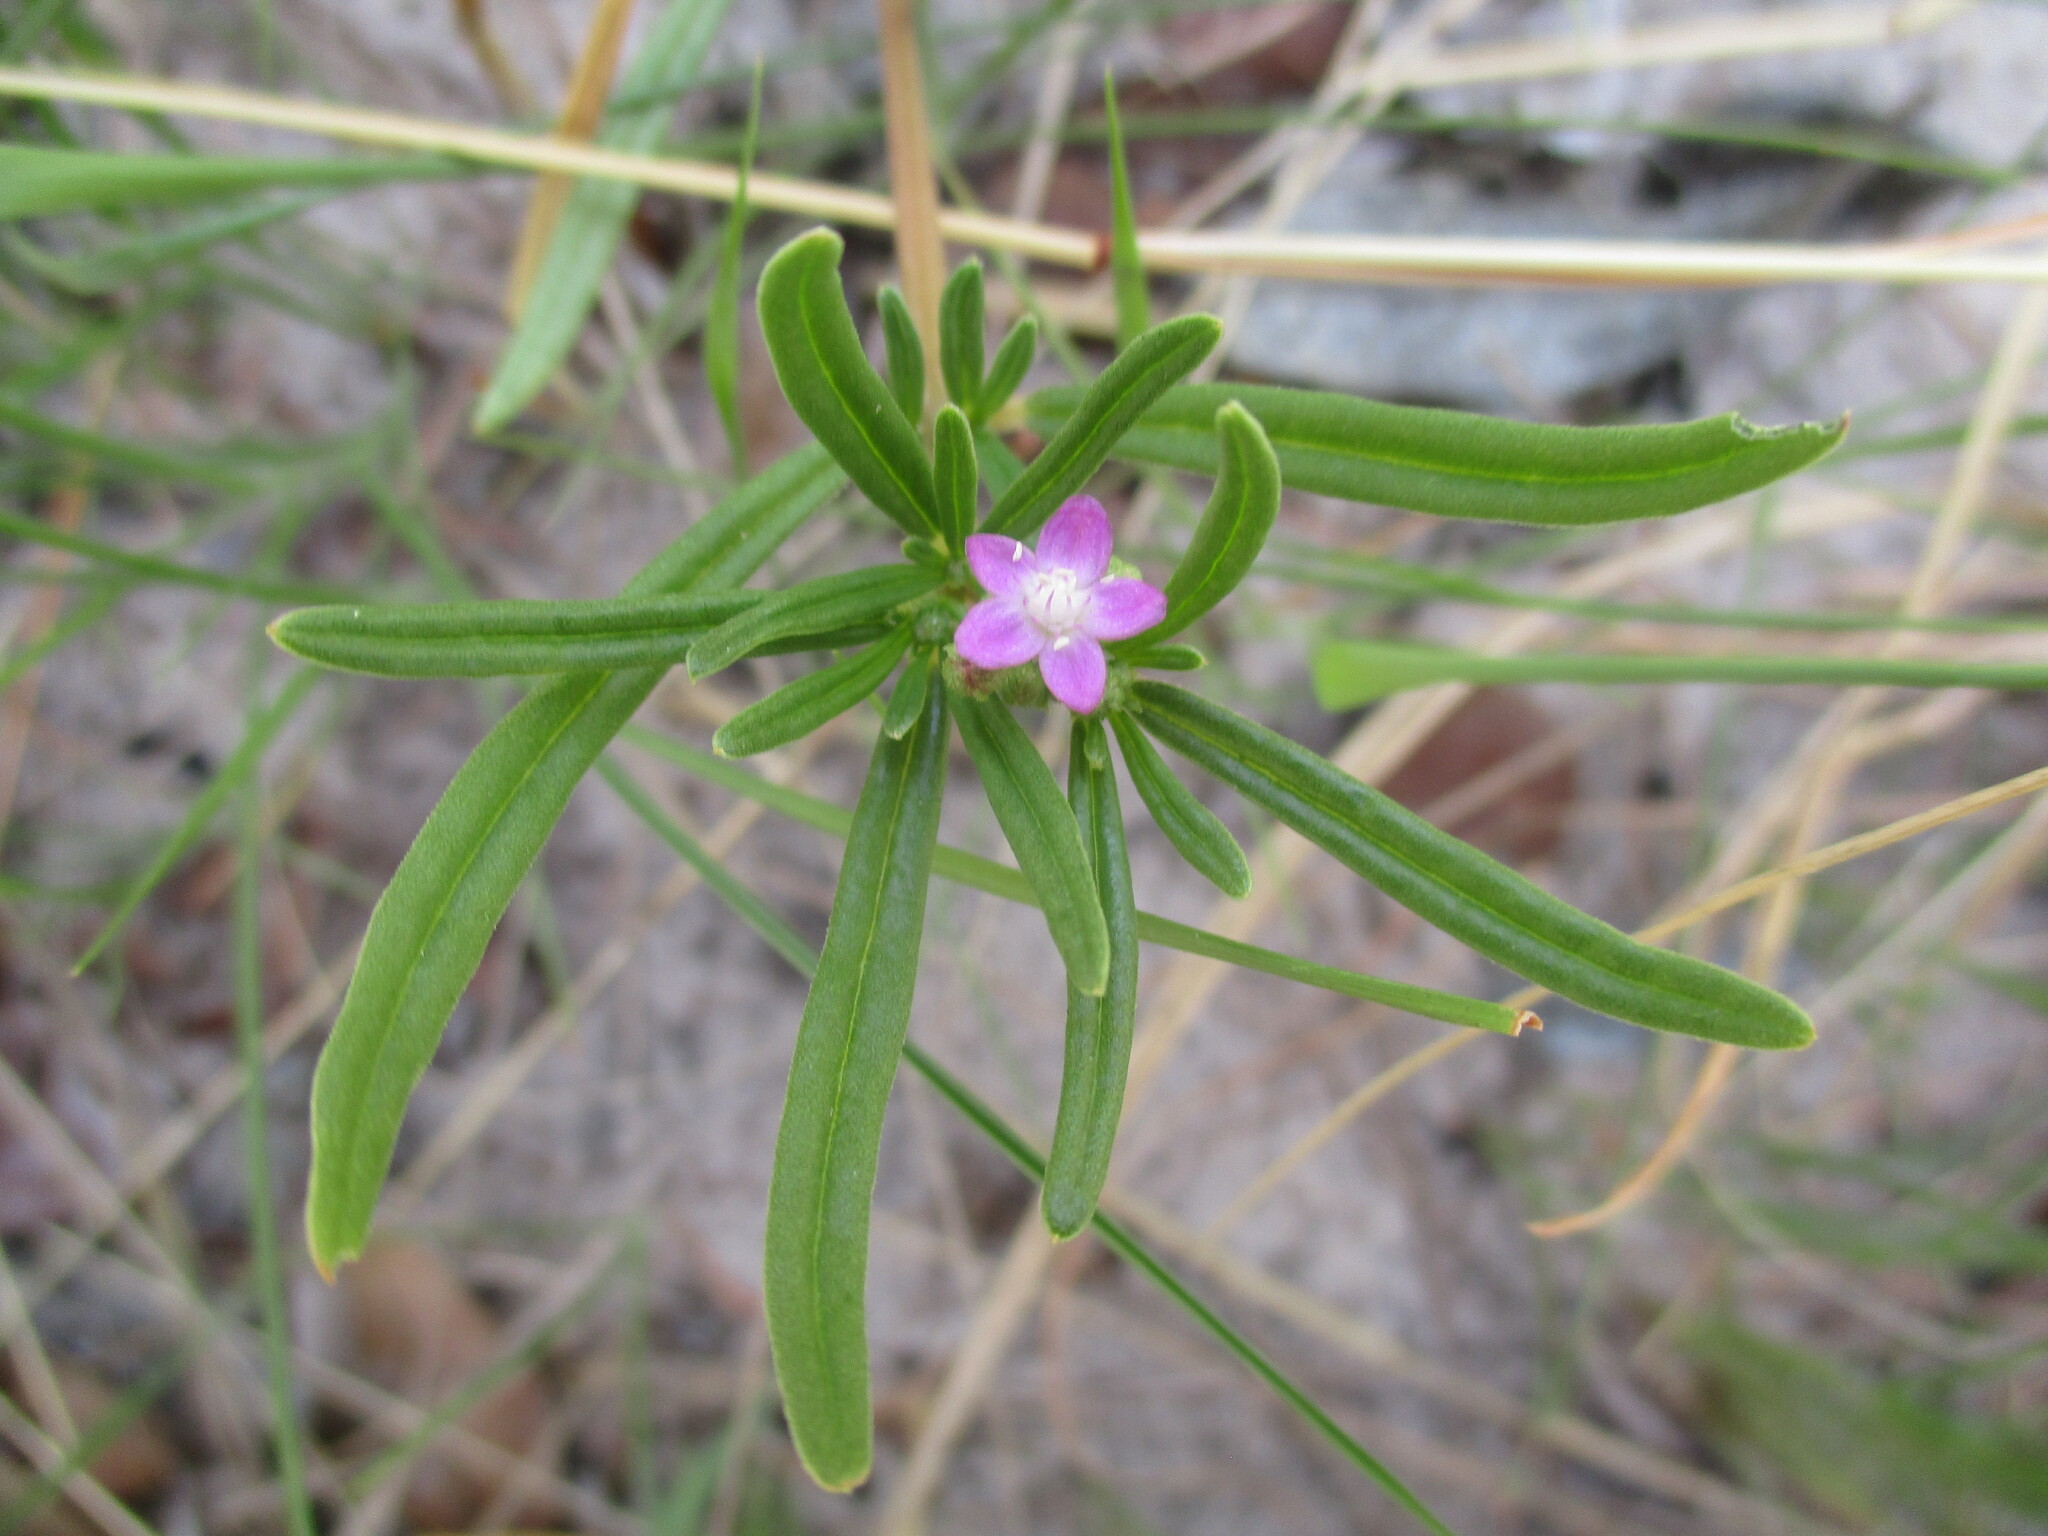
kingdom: Plantae
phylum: Tracheophyta
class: Magnoliopsida
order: Caryophyllales
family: Gisekiaceae
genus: Gisekia
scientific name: Gisekia africana
